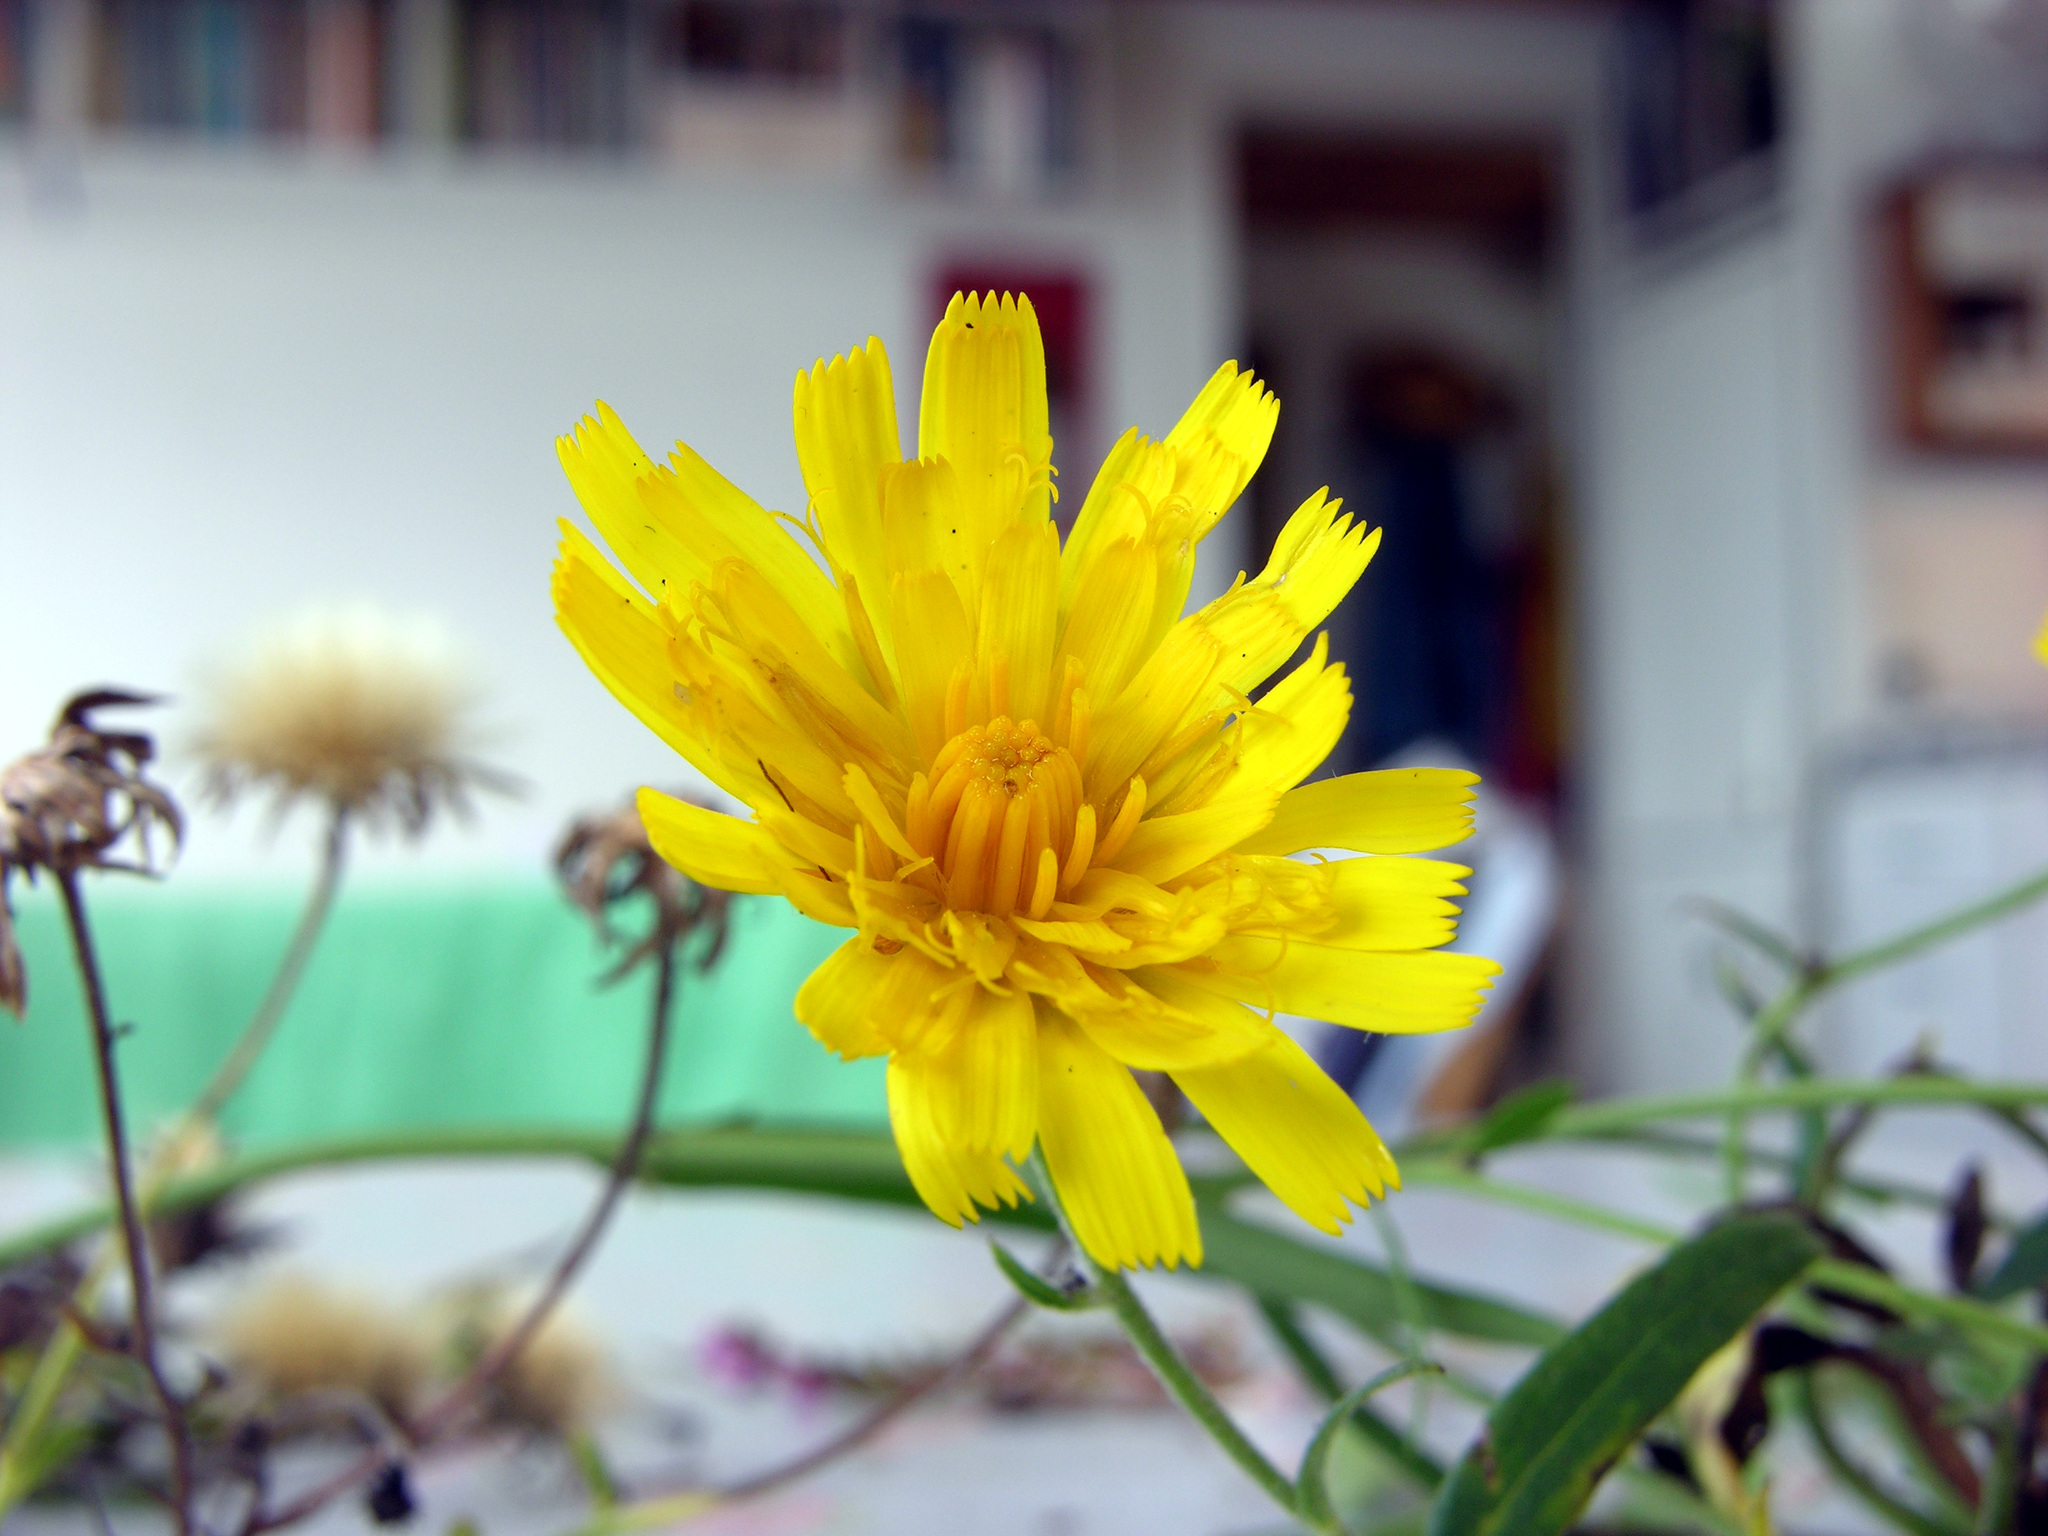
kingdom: Plantae
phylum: Tracheophyta
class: Magnoliopsida
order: Asterales
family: Asteraceae
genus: Hieracium
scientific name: Hieracium umbellatum
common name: Northern hawkweed
